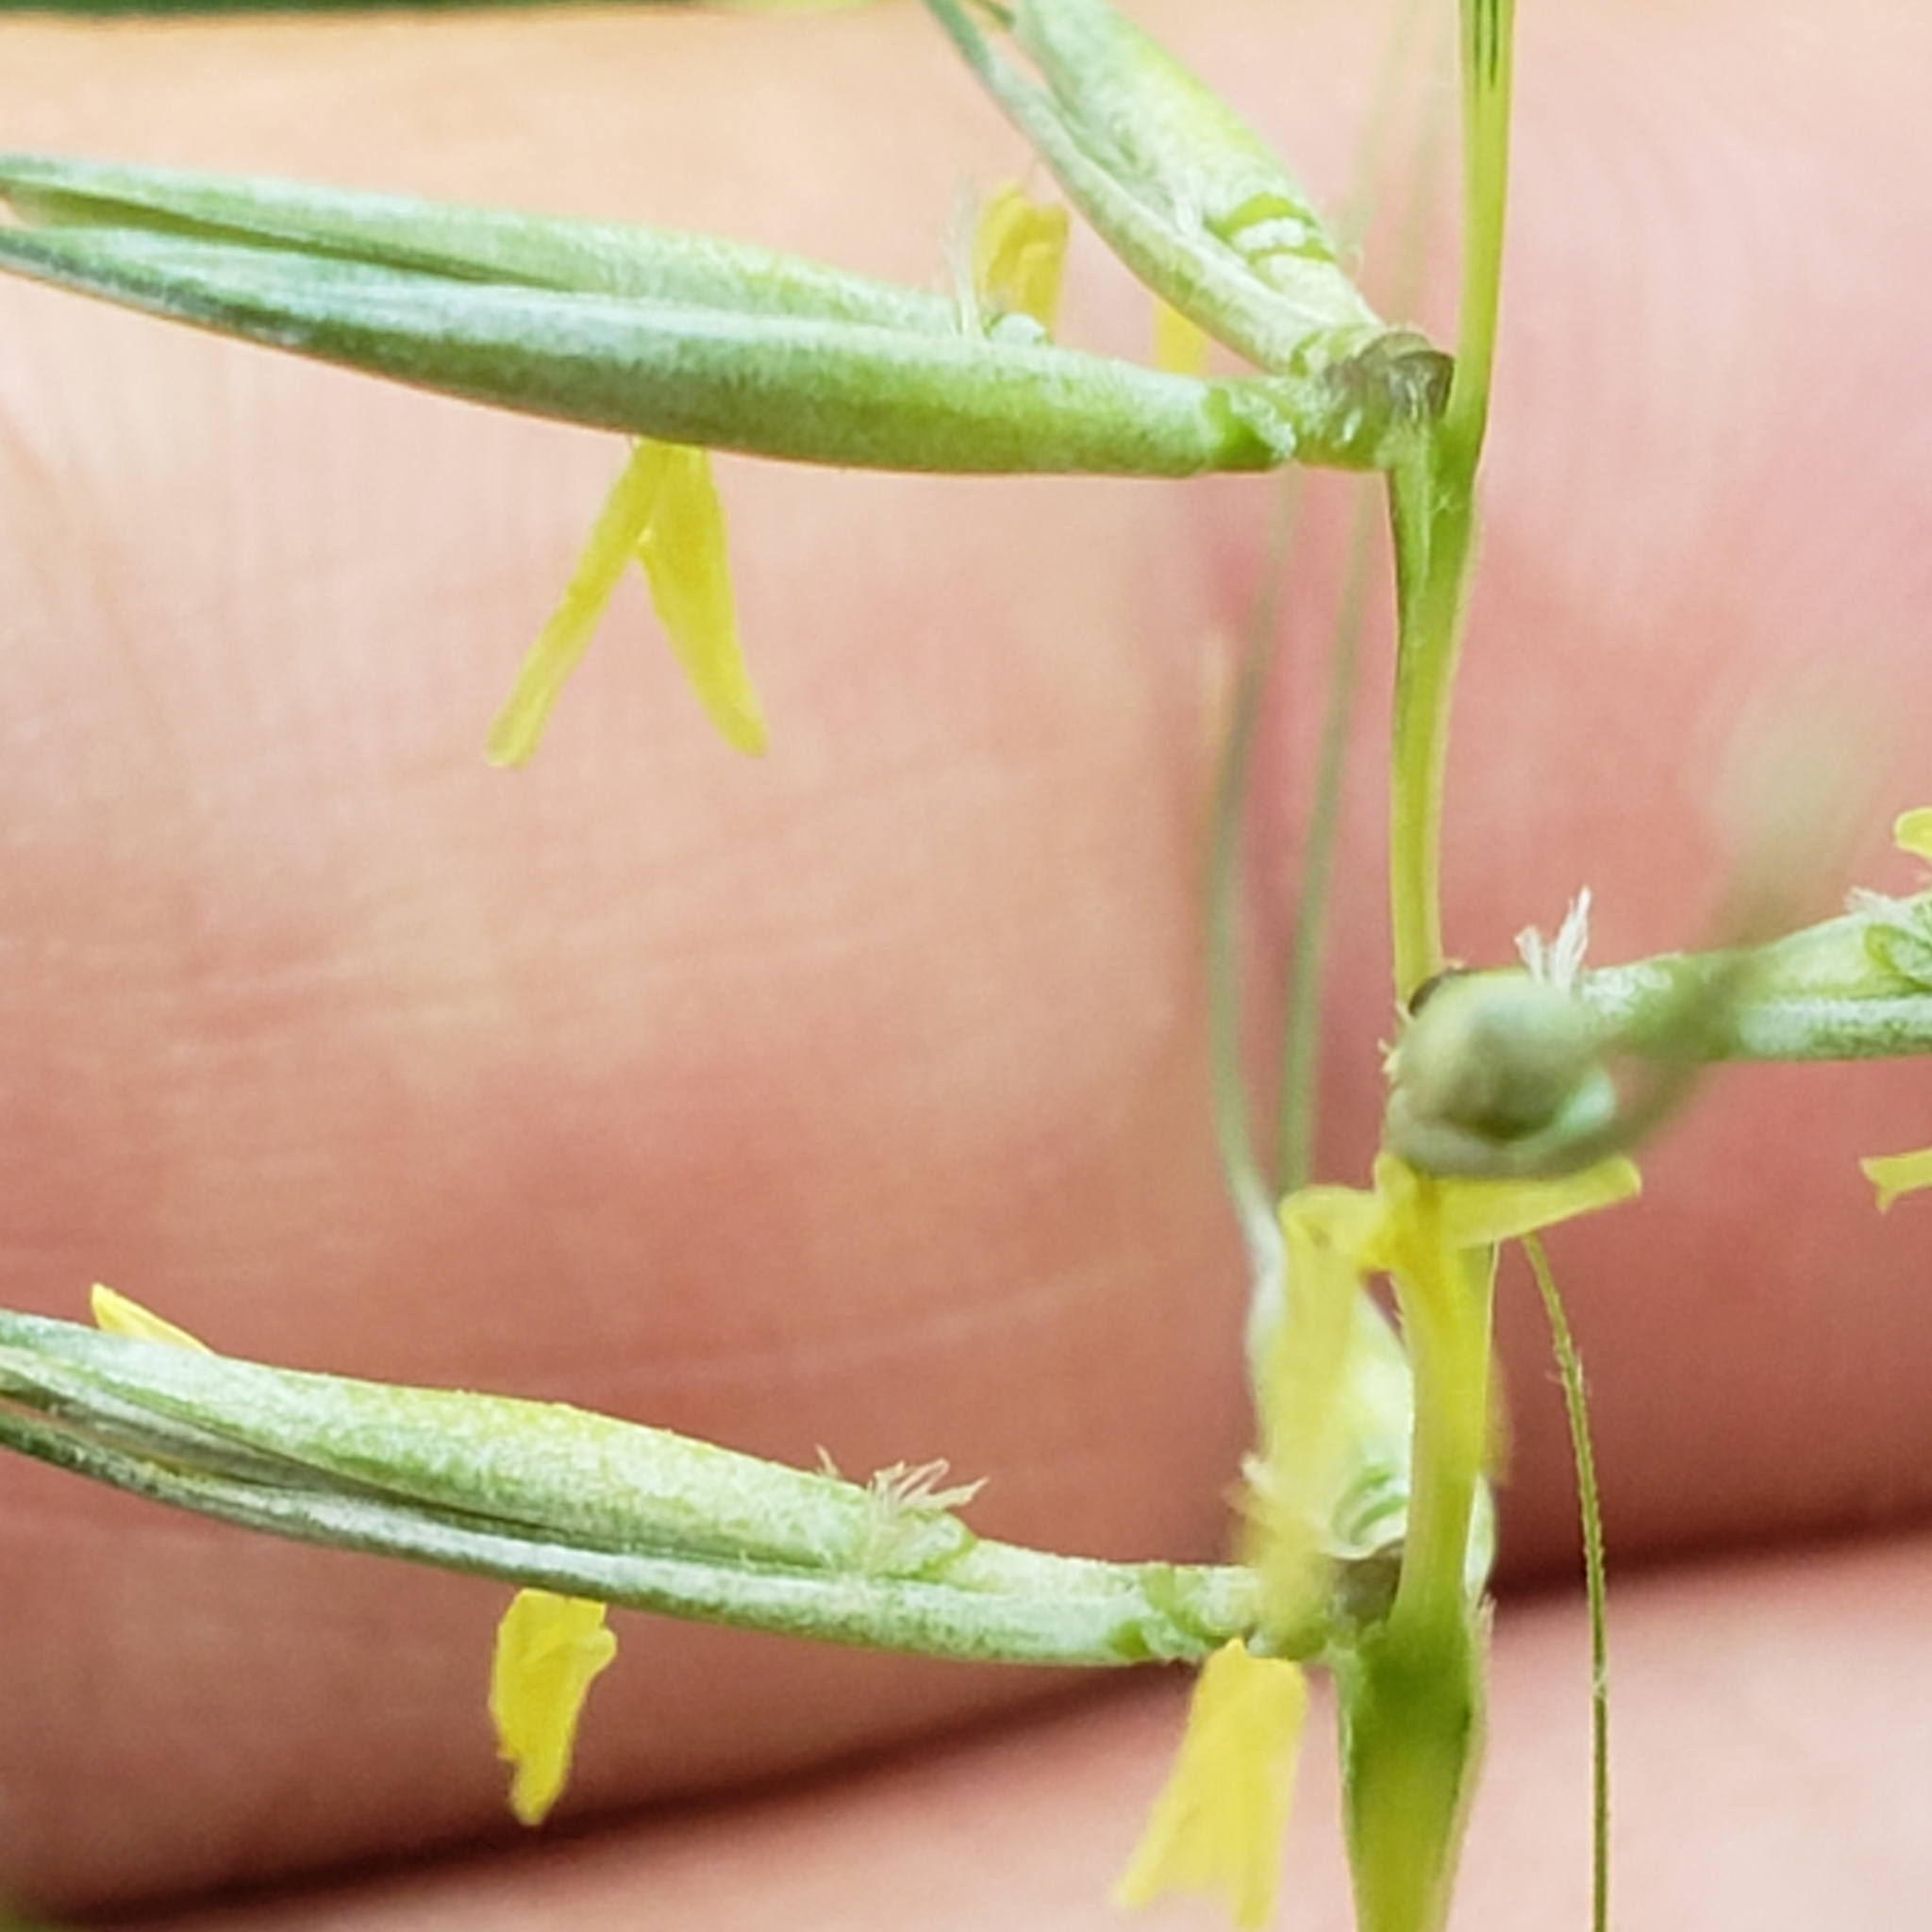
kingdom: Plantae
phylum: Tracheophyta
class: Liliopsida
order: Poales
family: Poaceae
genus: Elymus
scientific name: Elymus hystrix
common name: Bottlebrush grass
